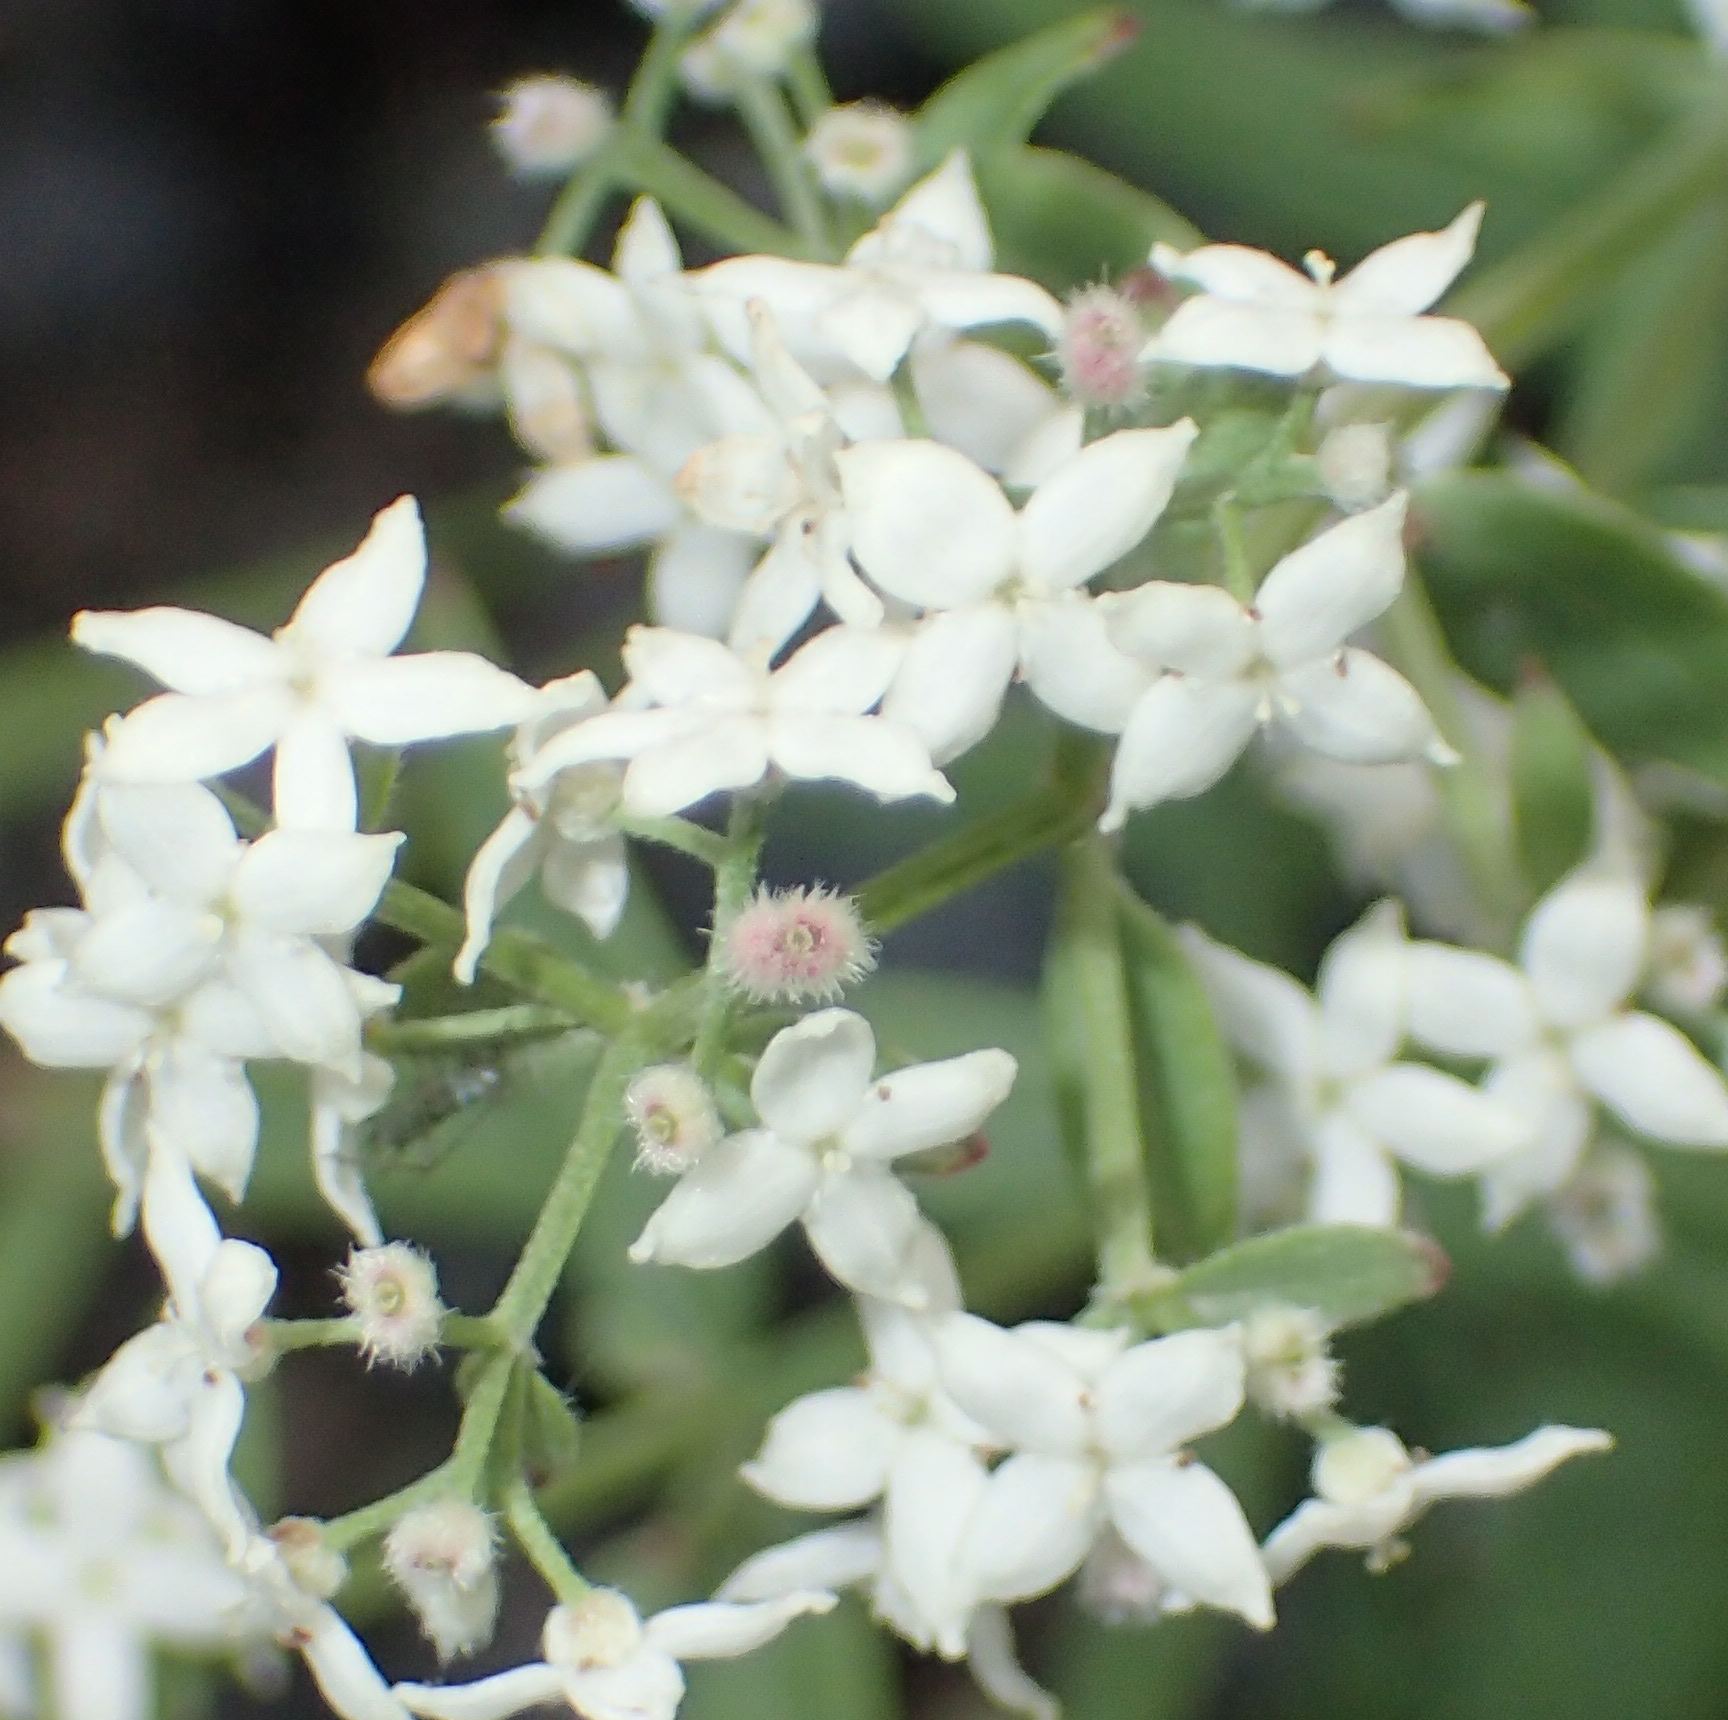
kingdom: Plantae
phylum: Tracheophyta
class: Magnoliopsida
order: Gentianales
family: Rubiaceae
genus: Galium
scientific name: Galium boreale
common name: Northern bedstraw
